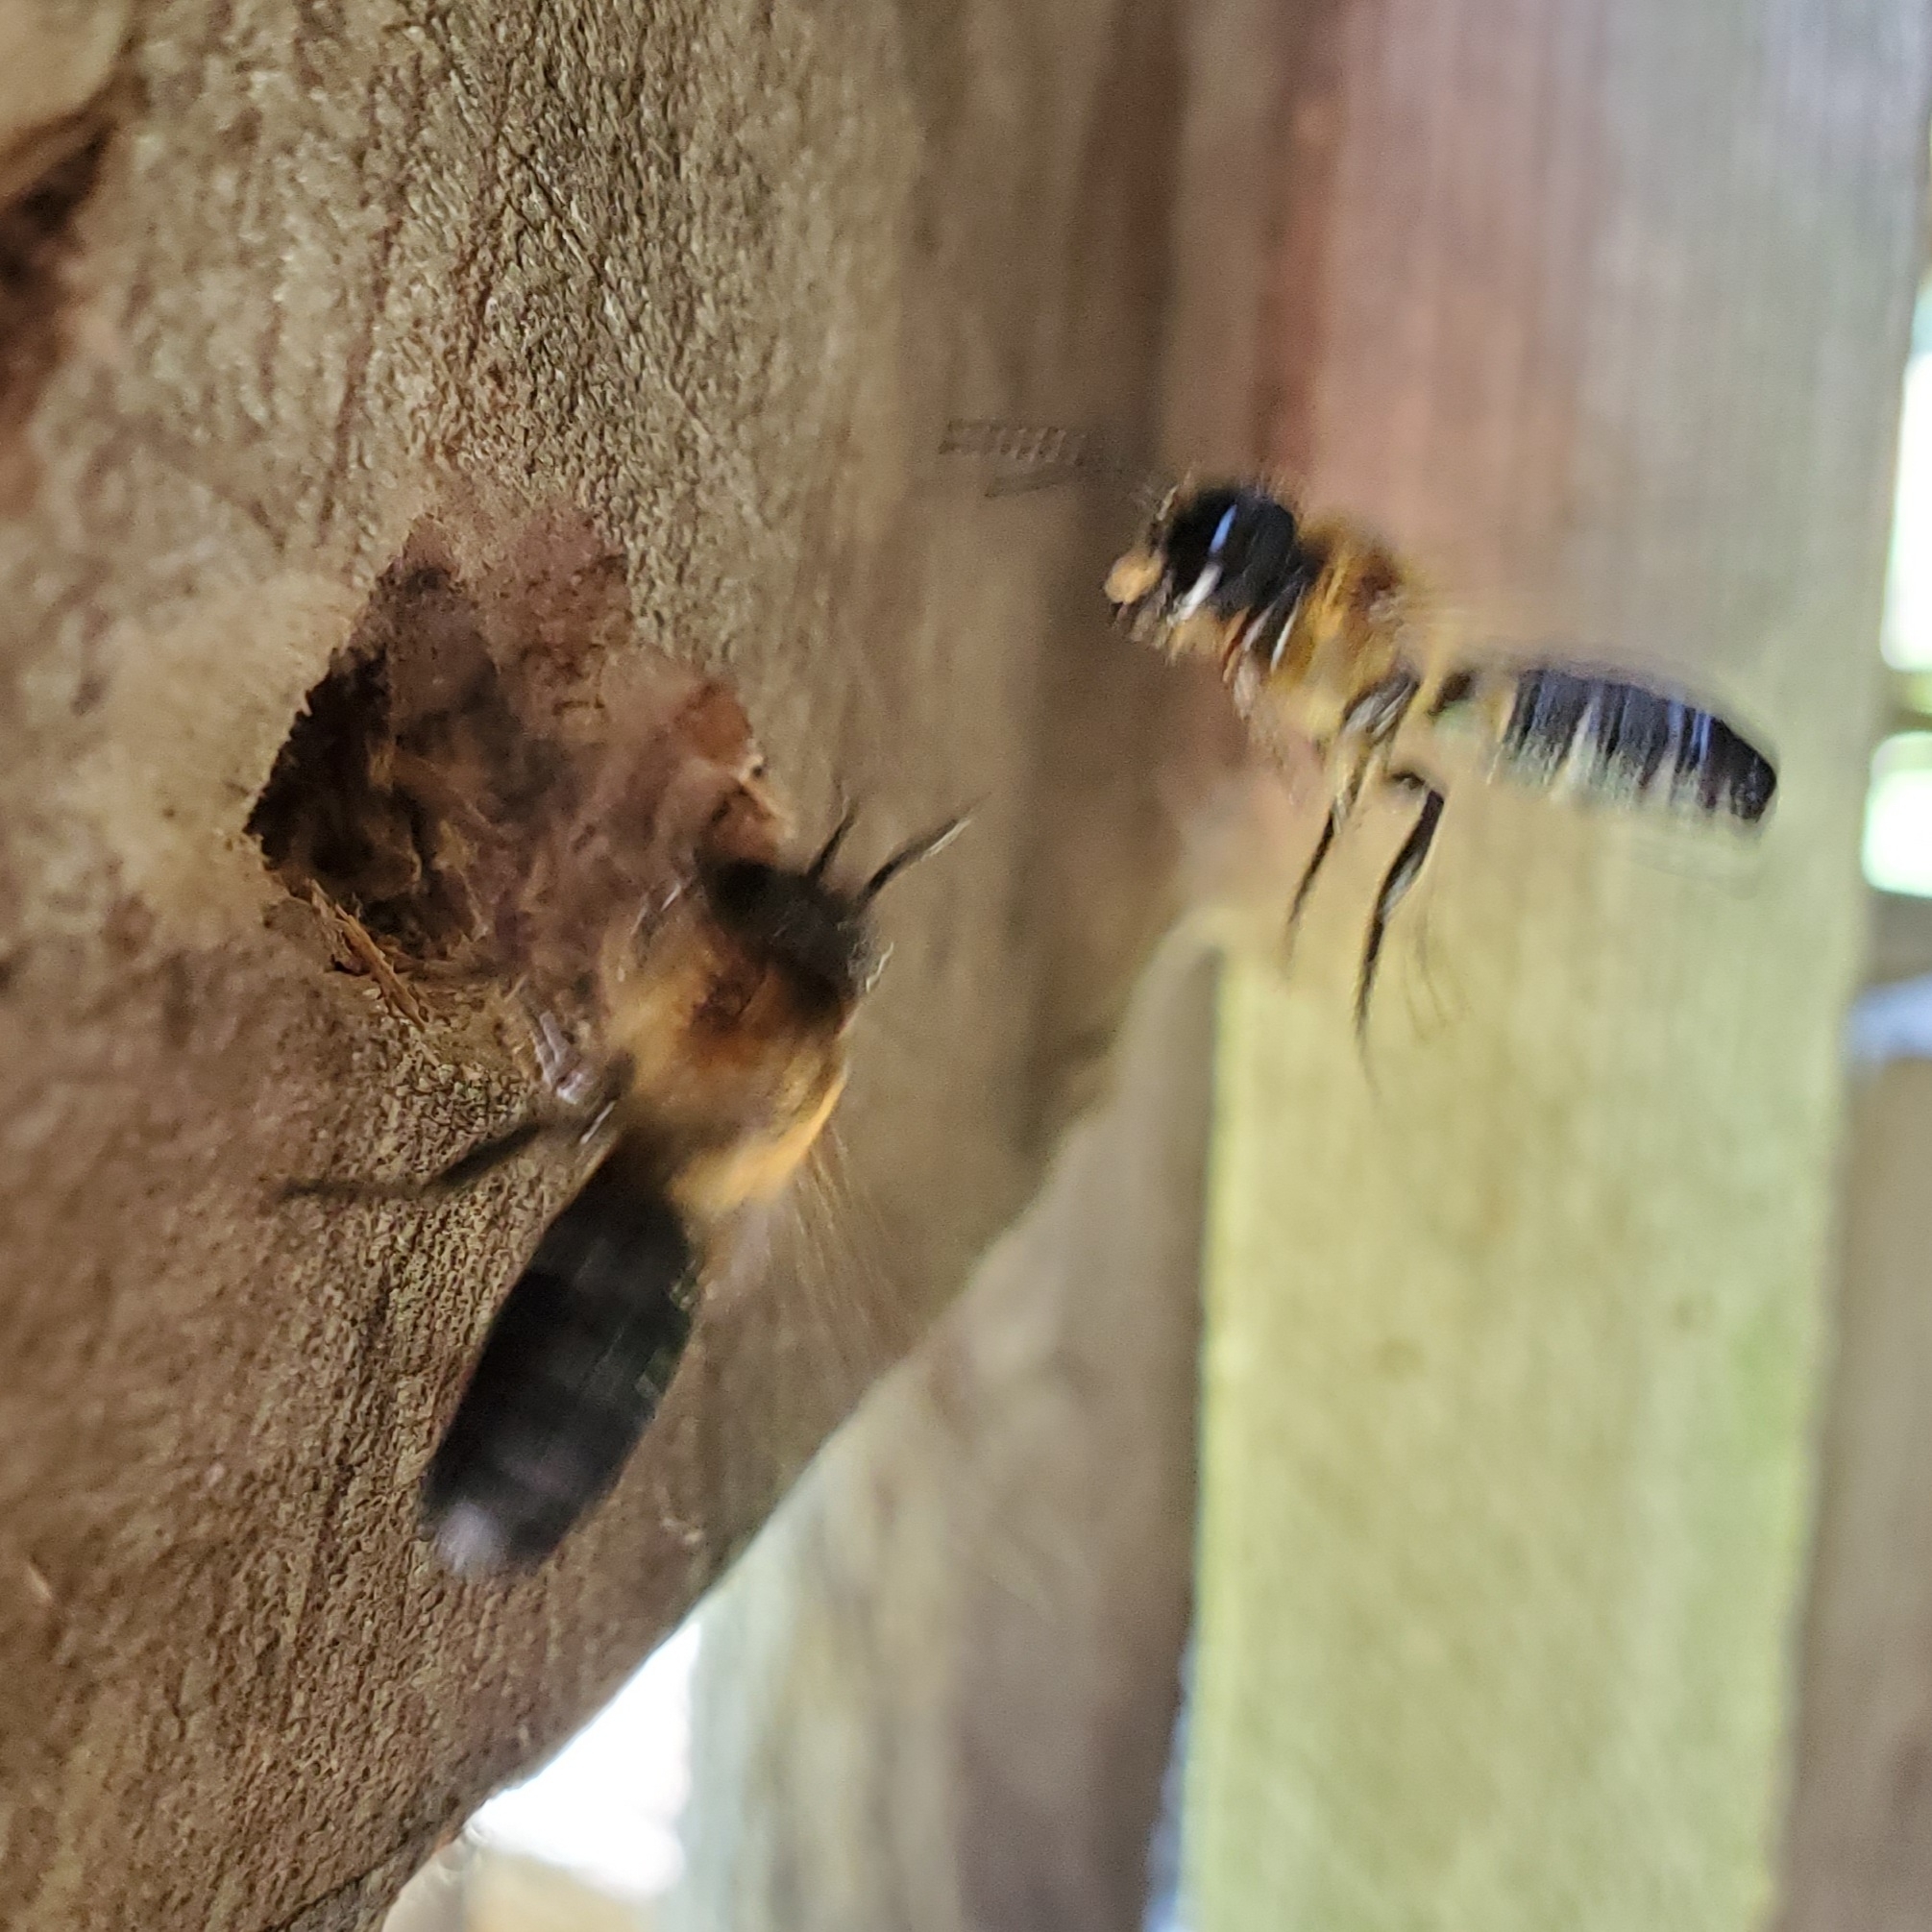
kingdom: Animalia
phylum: Arthropoda
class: Insecta
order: Hymenoptera
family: Megachilidae
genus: Megachile
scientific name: Megachile sculpturalis
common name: Sculptured resin bee
